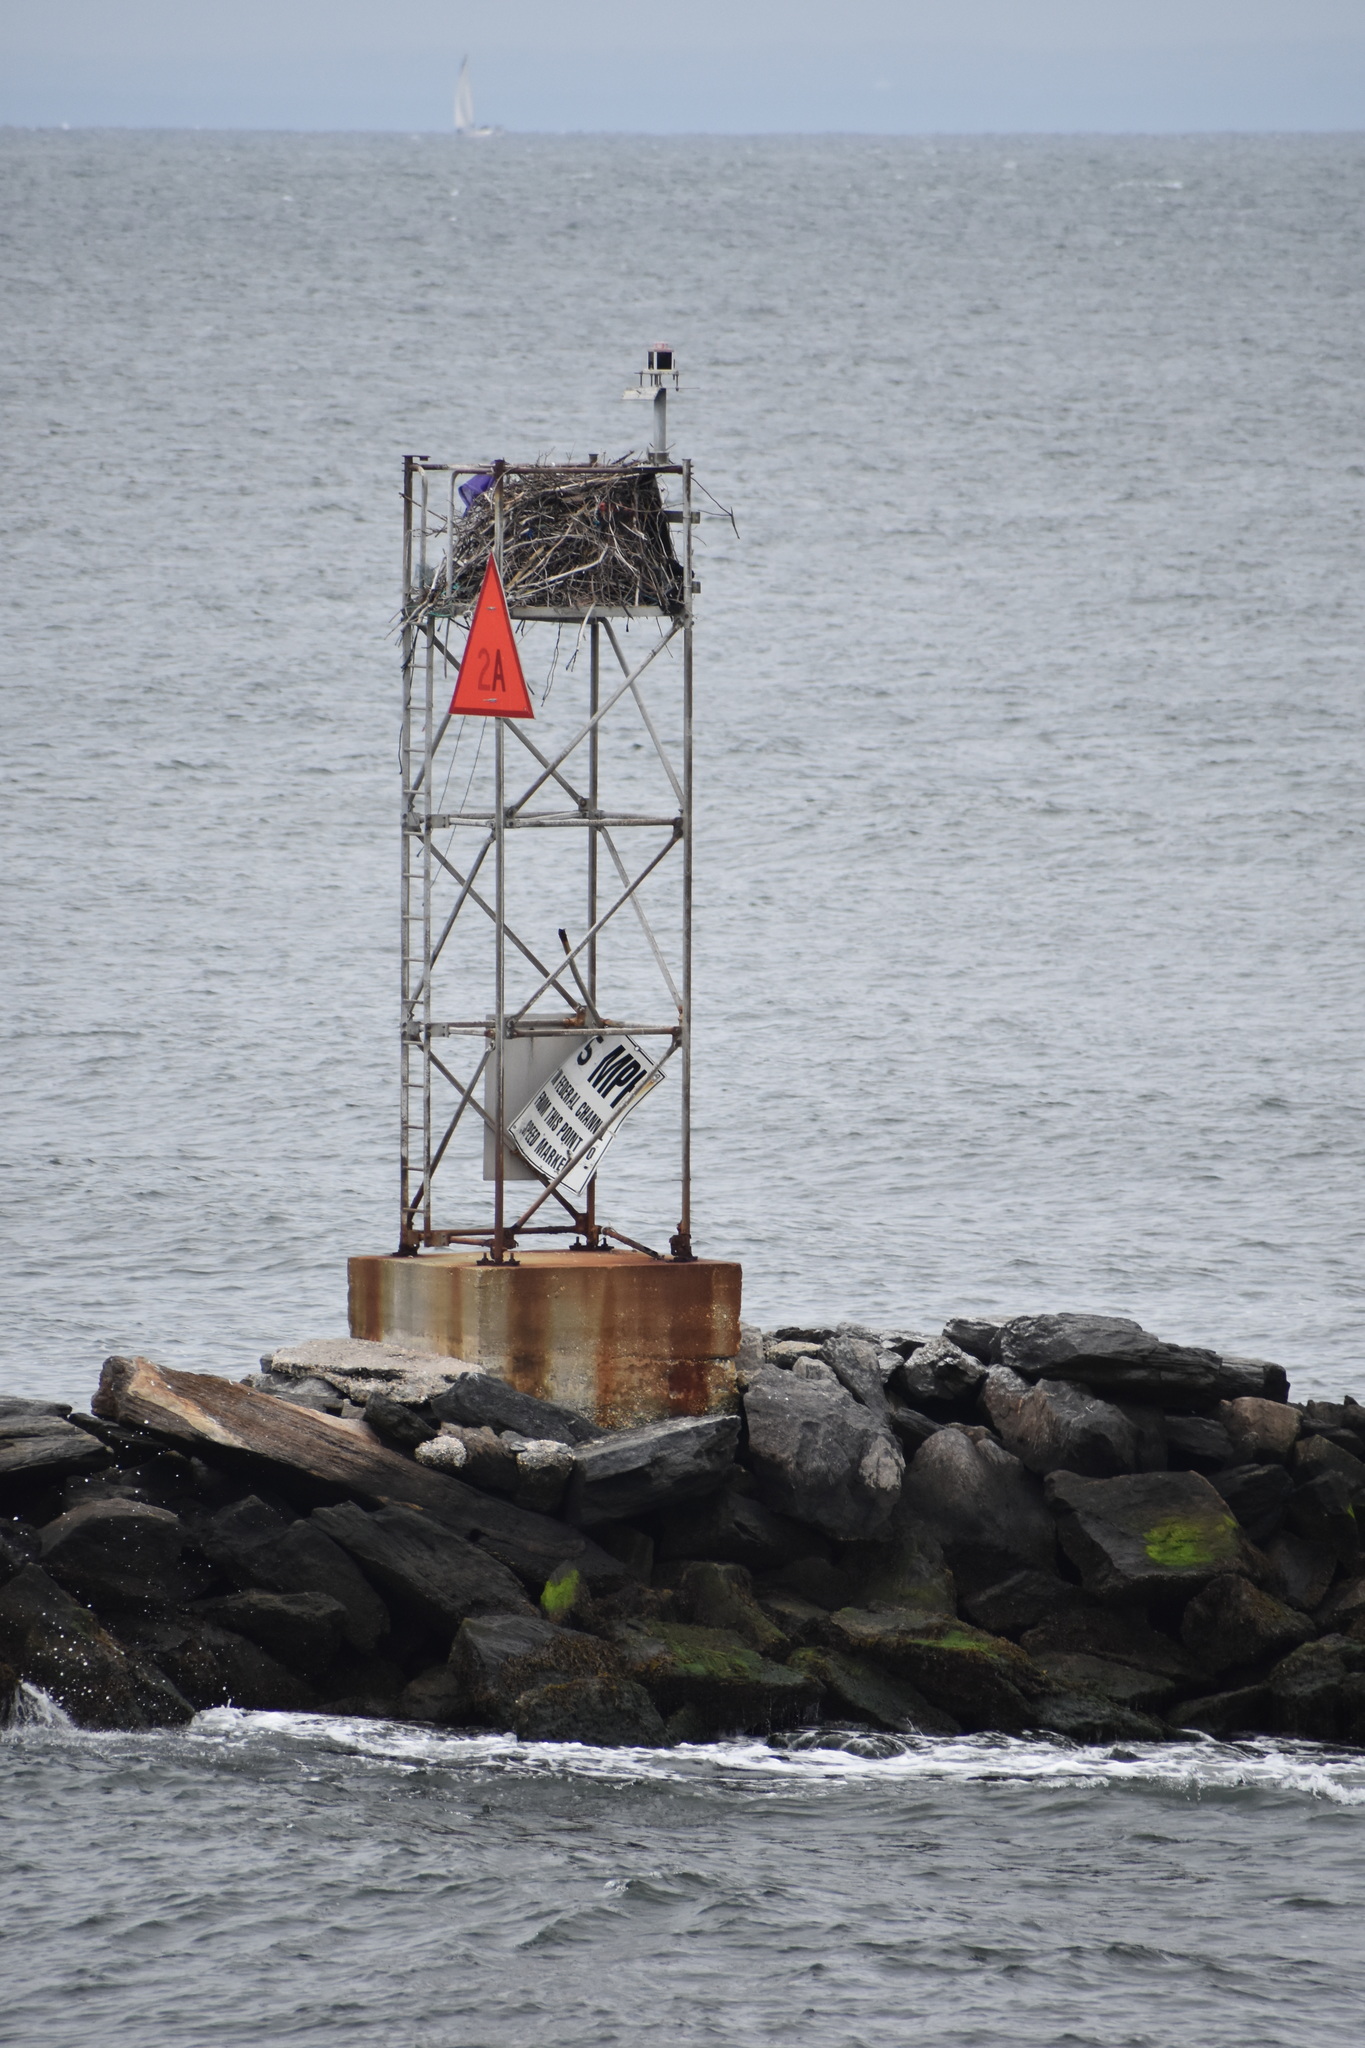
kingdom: Animalia
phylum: Chordata
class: Aves
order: Accipitriformes
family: Pandionidae
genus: Pandion
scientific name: Pandion haliaetus
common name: Osprey
